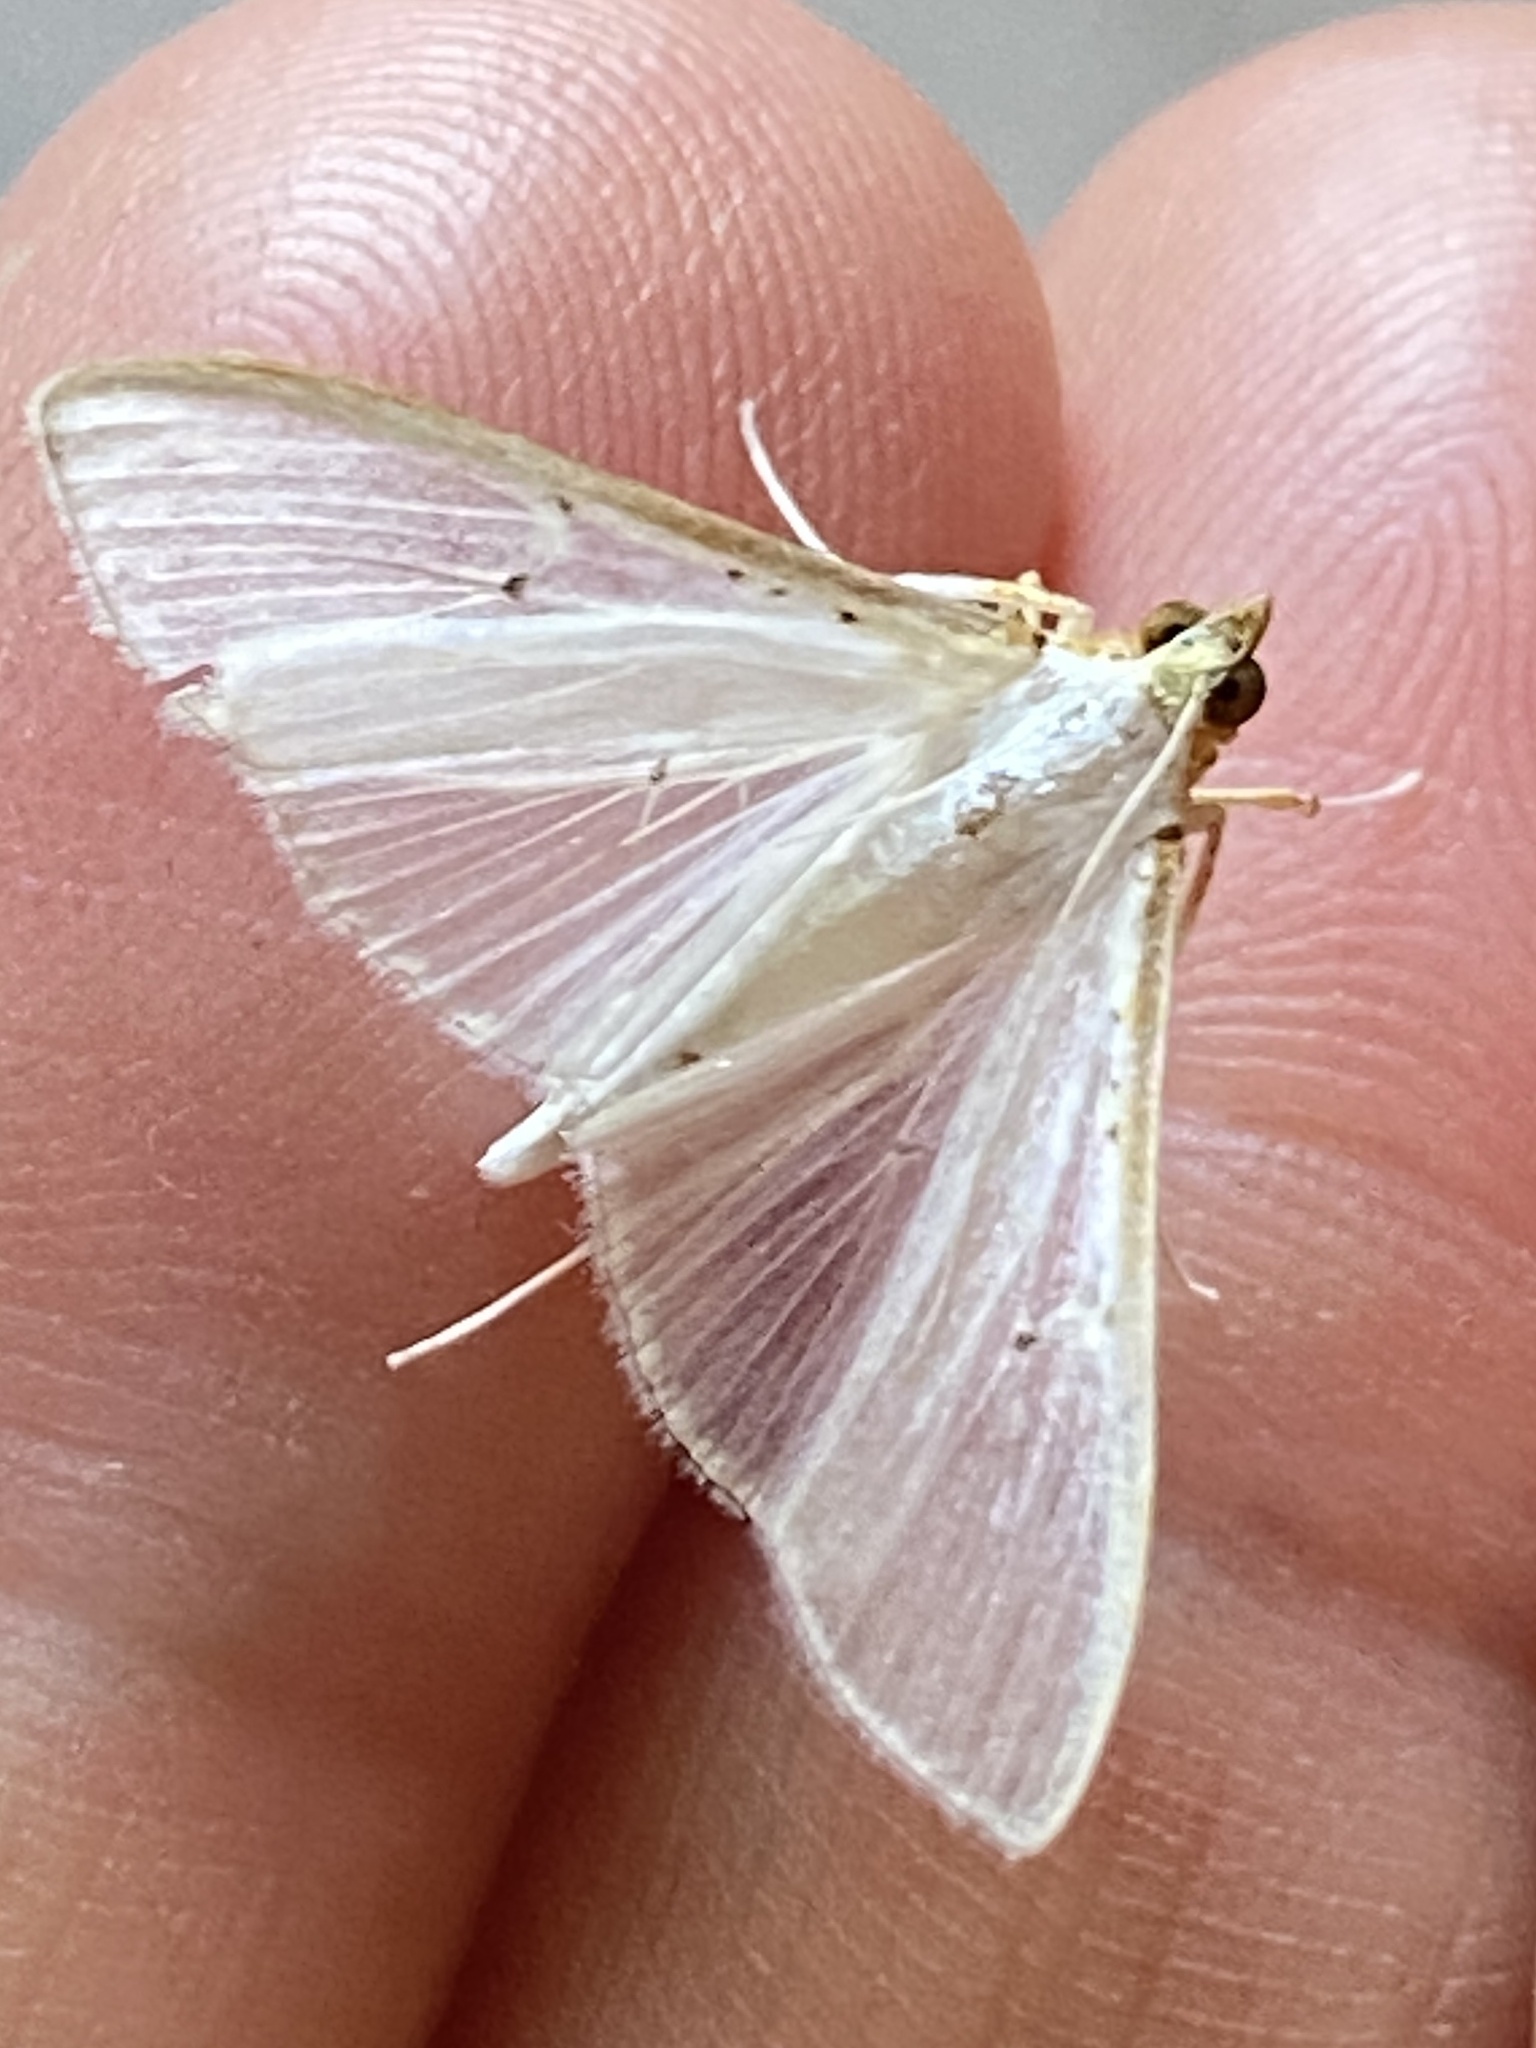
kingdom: Animalia
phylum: Arthropoda
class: Insecta
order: Lepidoptera
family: Crambidae
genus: Palpita
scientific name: Palpita vitrealis
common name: Olive-tree pearl
